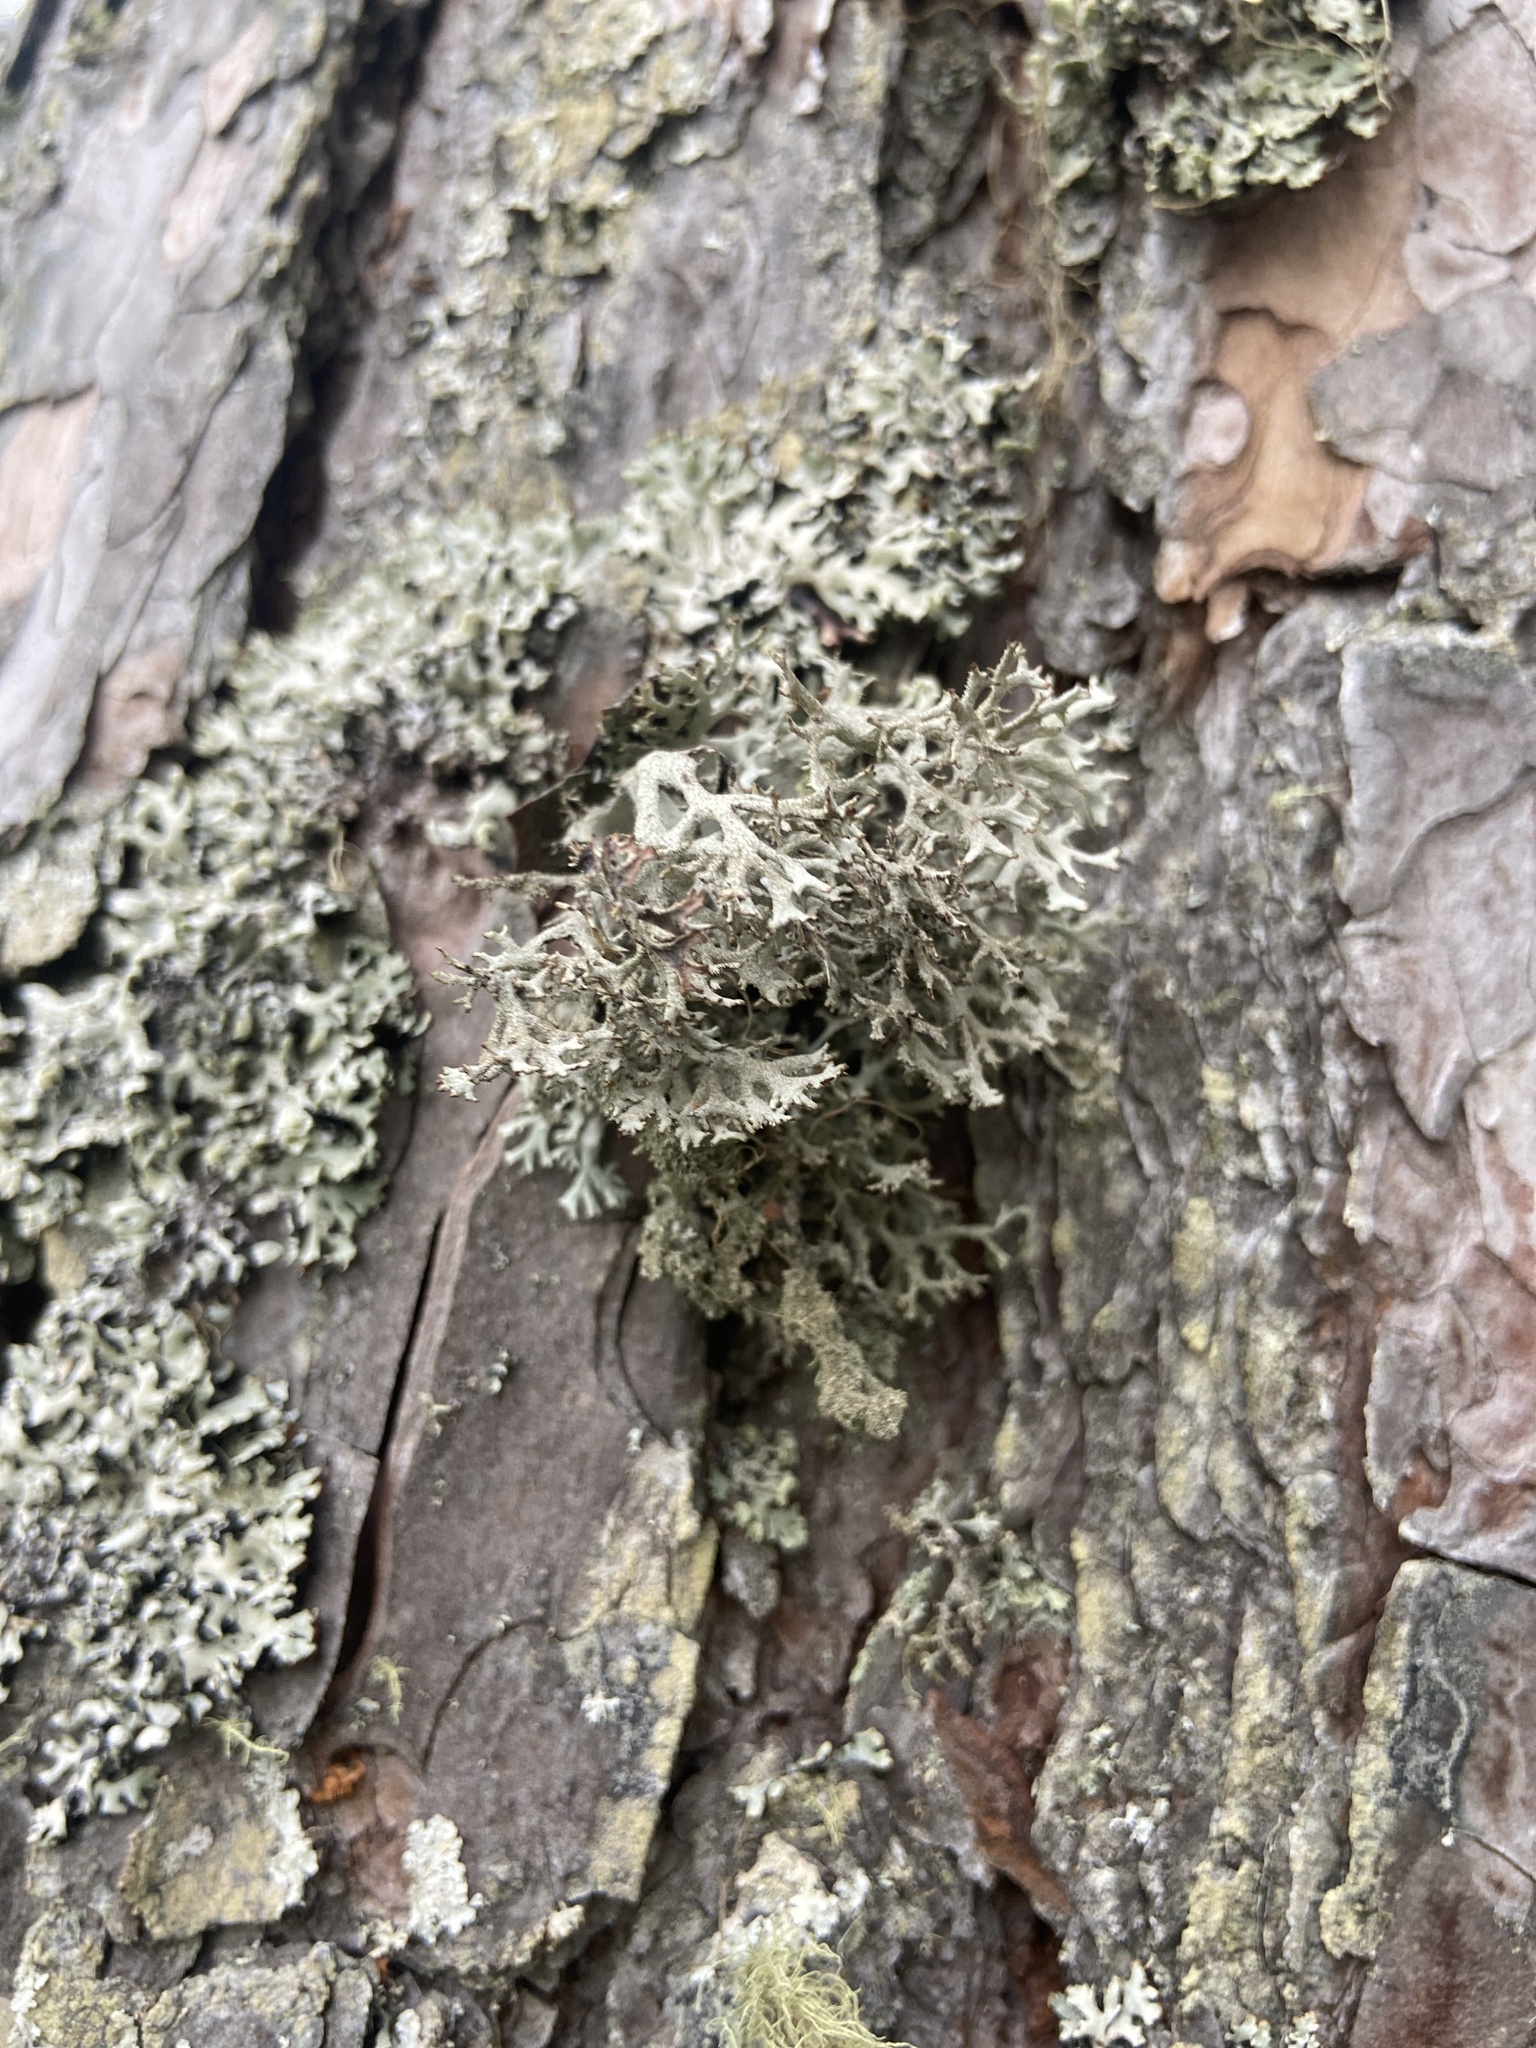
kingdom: Fungi
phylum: Ascomycota
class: Lecanoromycetes
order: Lecanorales
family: Parmeliaceae
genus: Pseudevernia
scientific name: Pseudevernia furfuracea
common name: Tree moss
